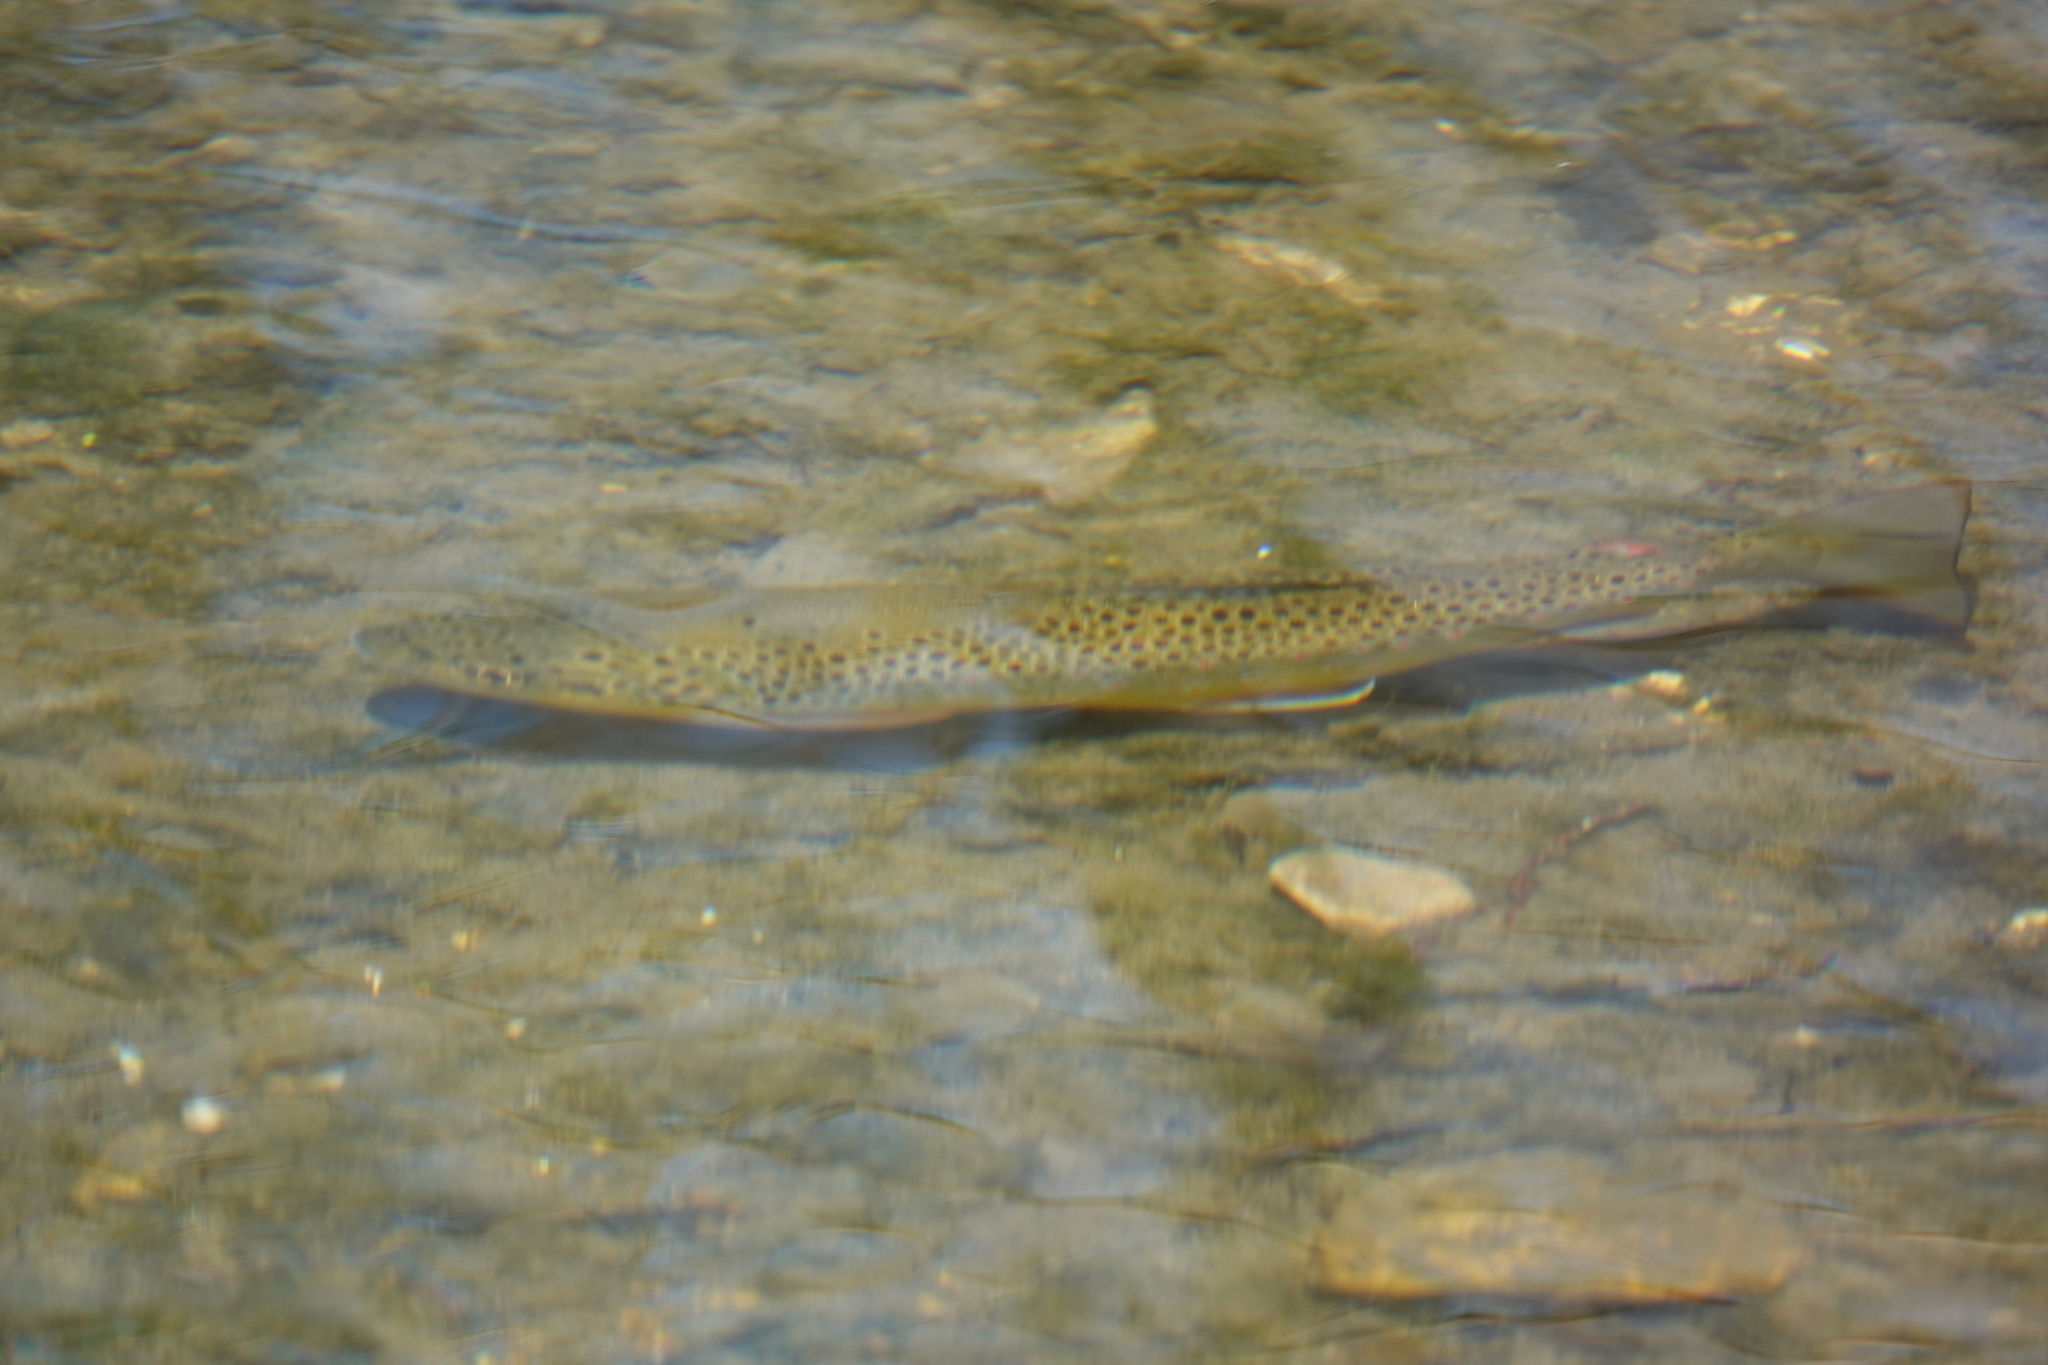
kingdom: Animalia
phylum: Chordata
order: Salmoniformes
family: Salmonidae
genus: Salmo
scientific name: Salmo trutta
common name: Brown trout
